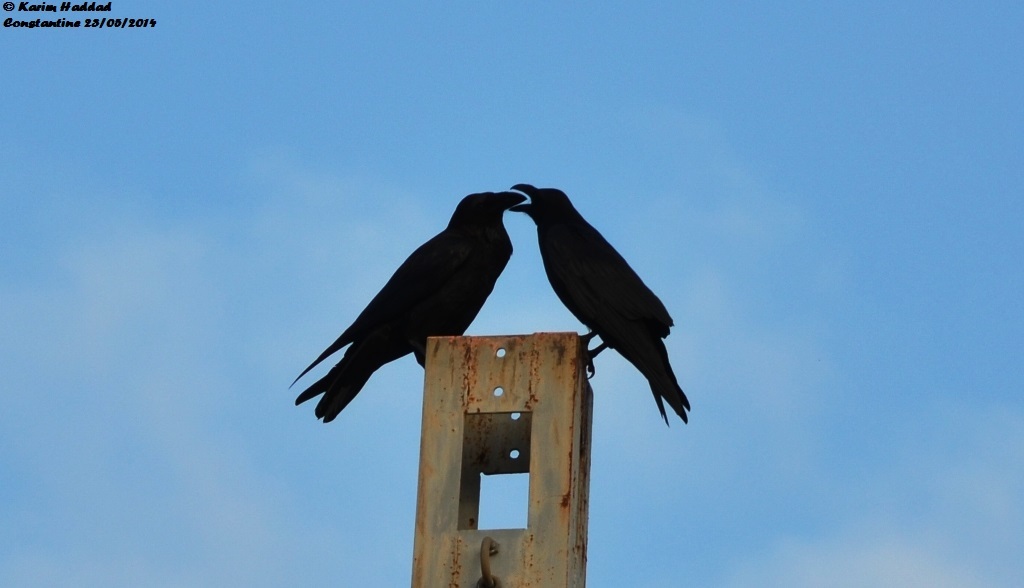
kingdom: Animalia
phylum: Chordata
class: Aves
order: Passeriformes
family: Corvidae
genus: Corvus
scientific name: Corvus corax
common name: Common raven
